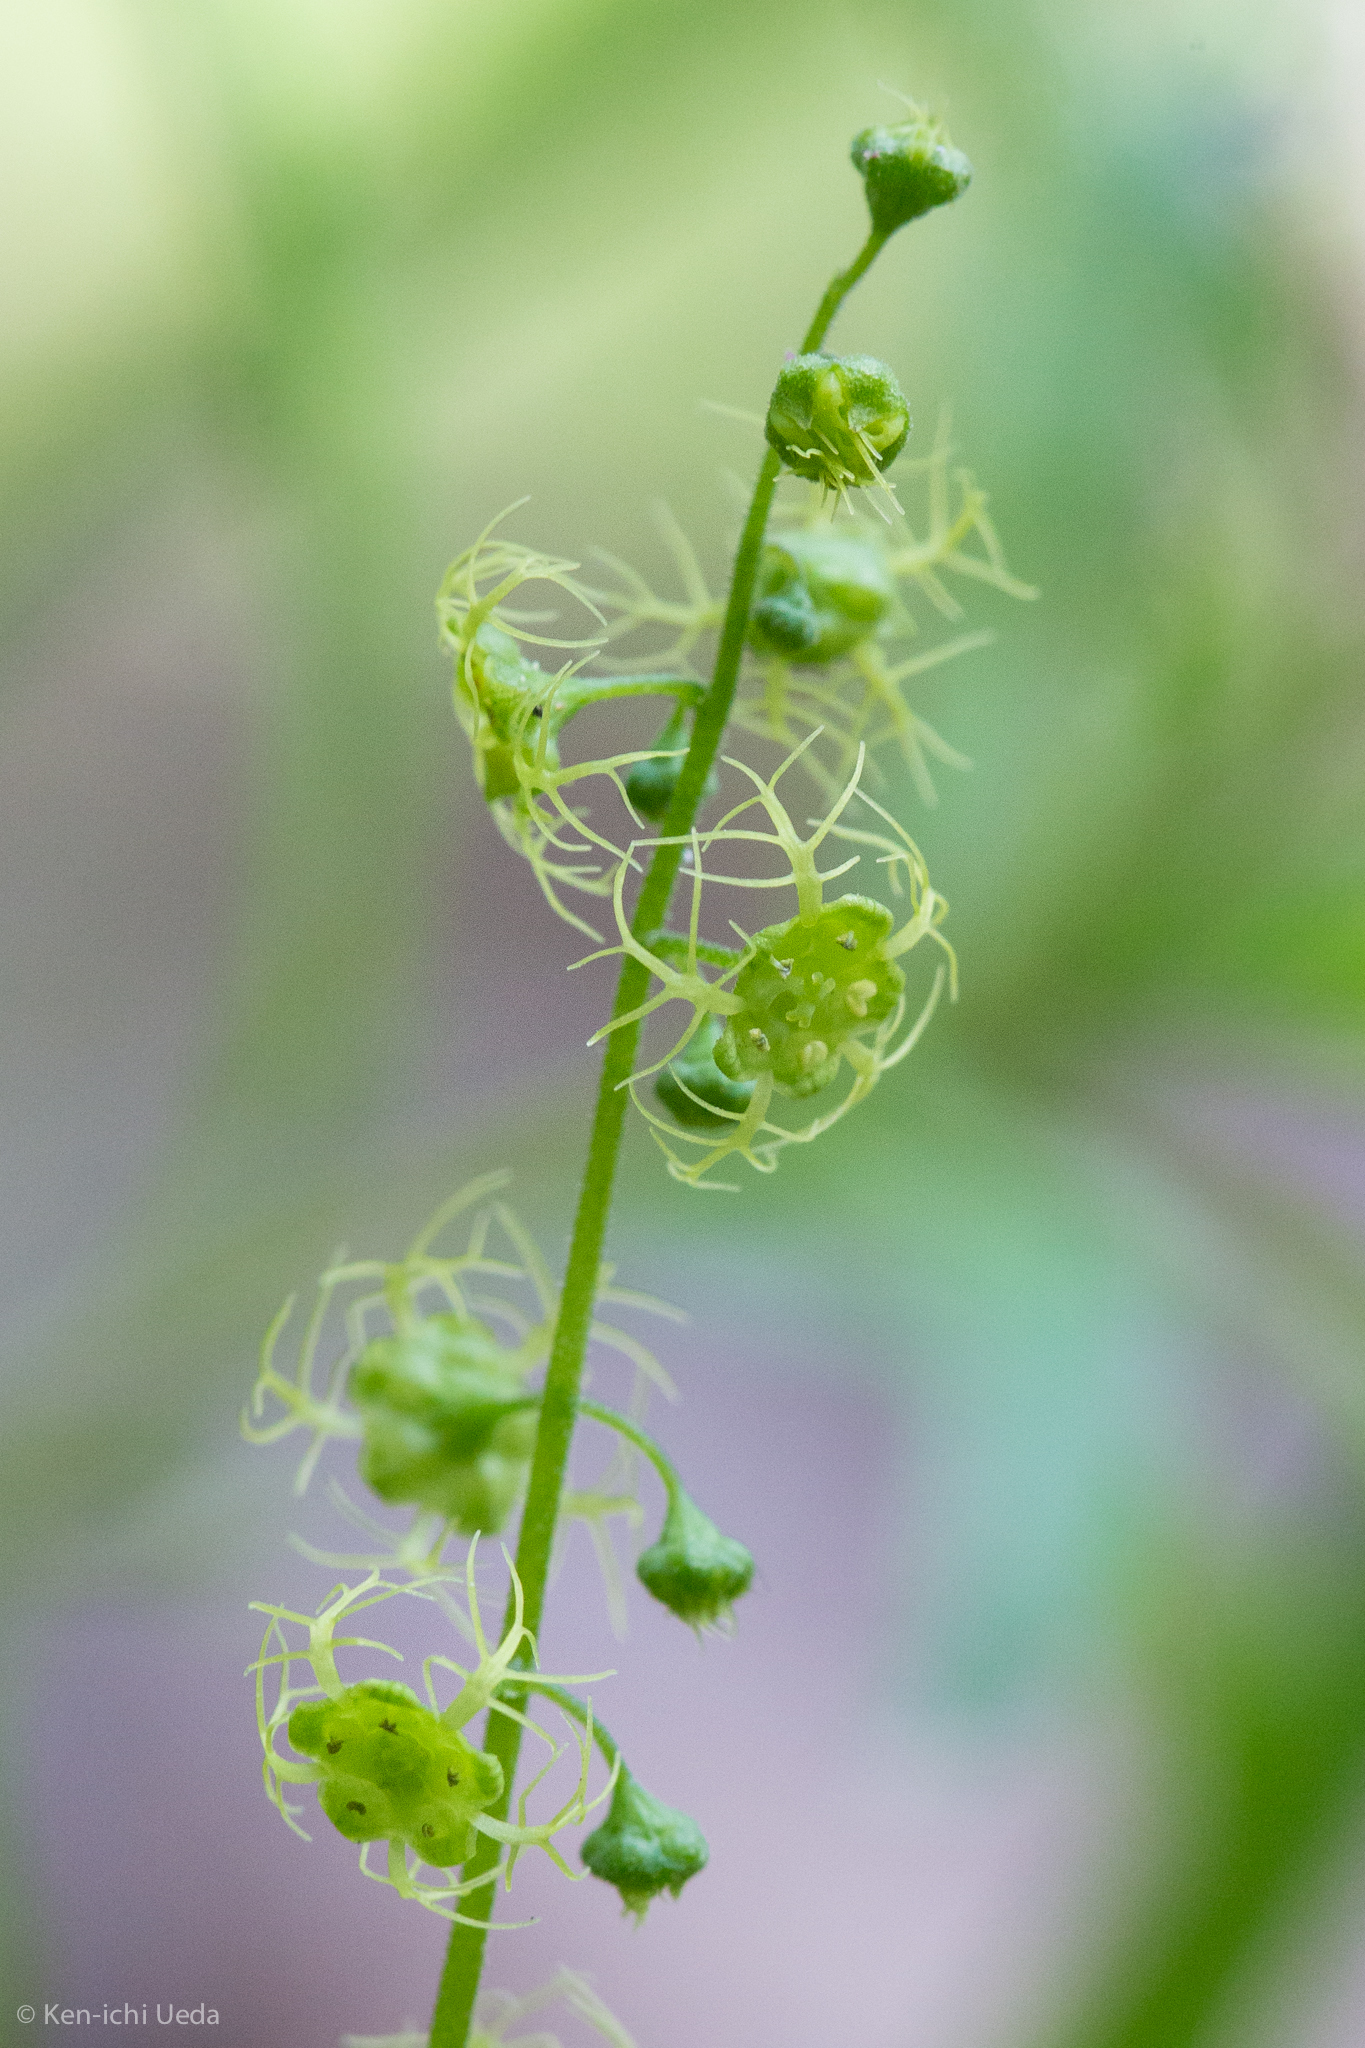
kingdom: Plantae
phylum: Tracheophyta
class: Magnoliopsida
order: Saxifragales
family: Saxifragaceae
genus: Brewerimitella
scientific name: Brewerimitella breweri
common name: Brewer's bishop's-cap
